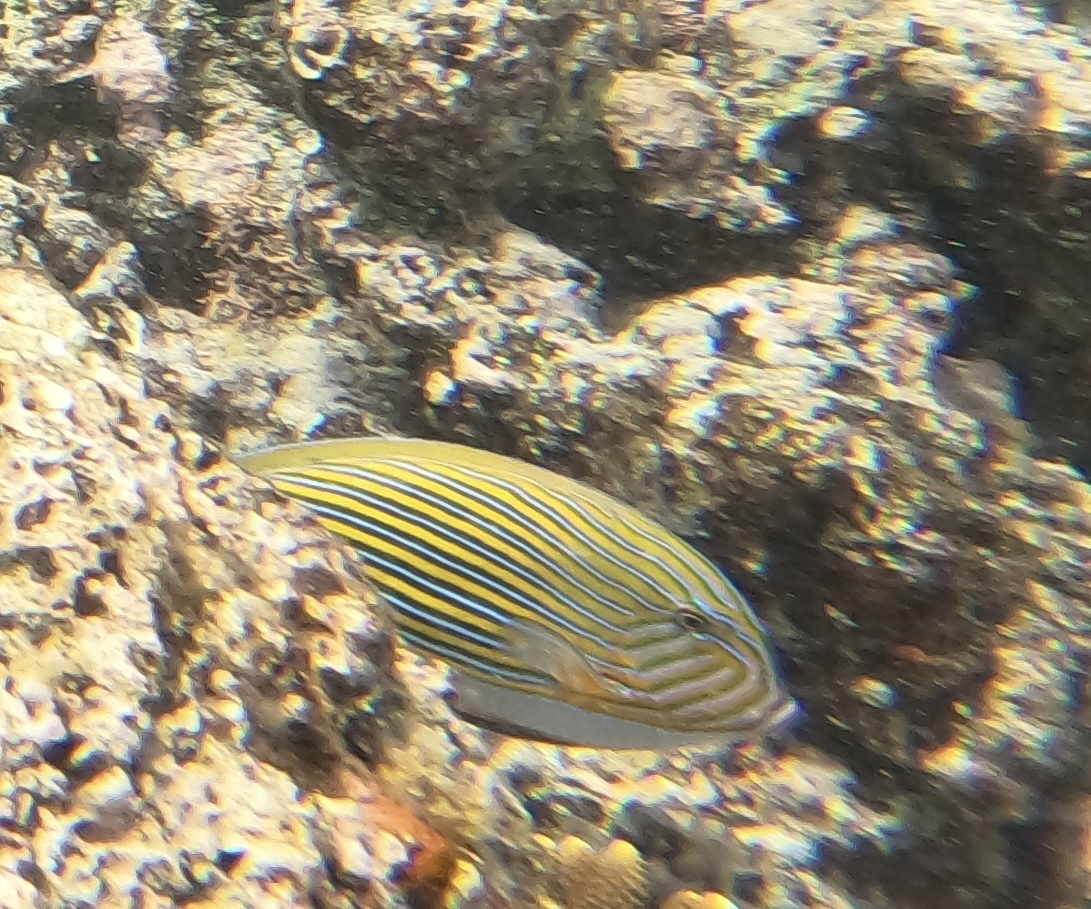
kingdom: Animalia
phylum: Chordata
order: Perciformes
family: Acanthuridae
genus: Acanthurus
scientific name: Acanthurus lineatus
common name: Striped surgeonfish
